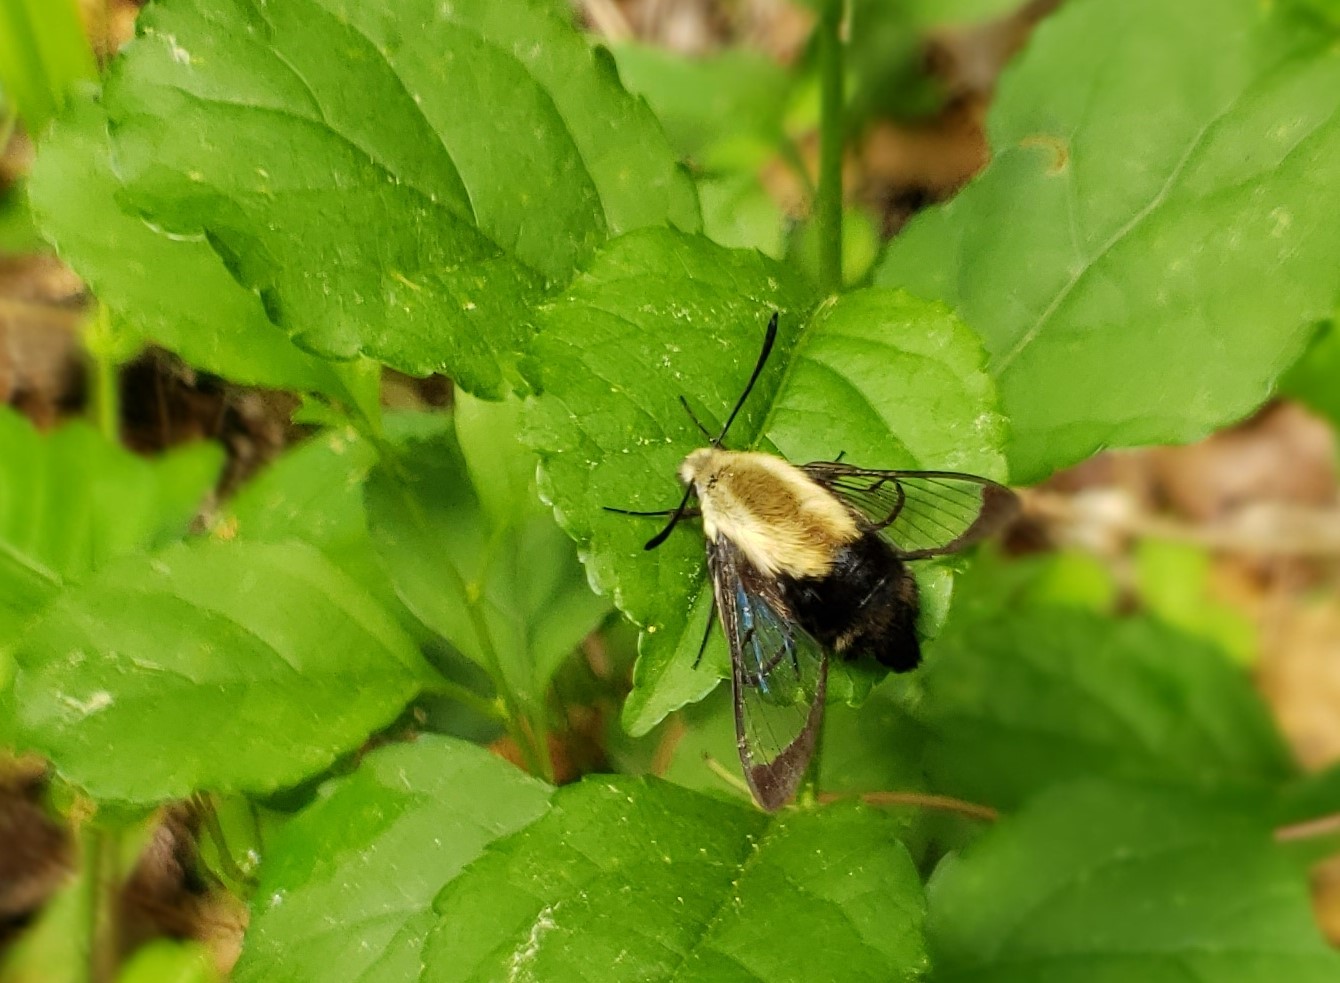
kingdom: Animalia
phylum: Arthropoda
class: Insecta
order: Lepidoptera
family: Sphingidae
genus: Hemaris
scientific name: Hemaris diffinis
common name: Bumblebee moth
